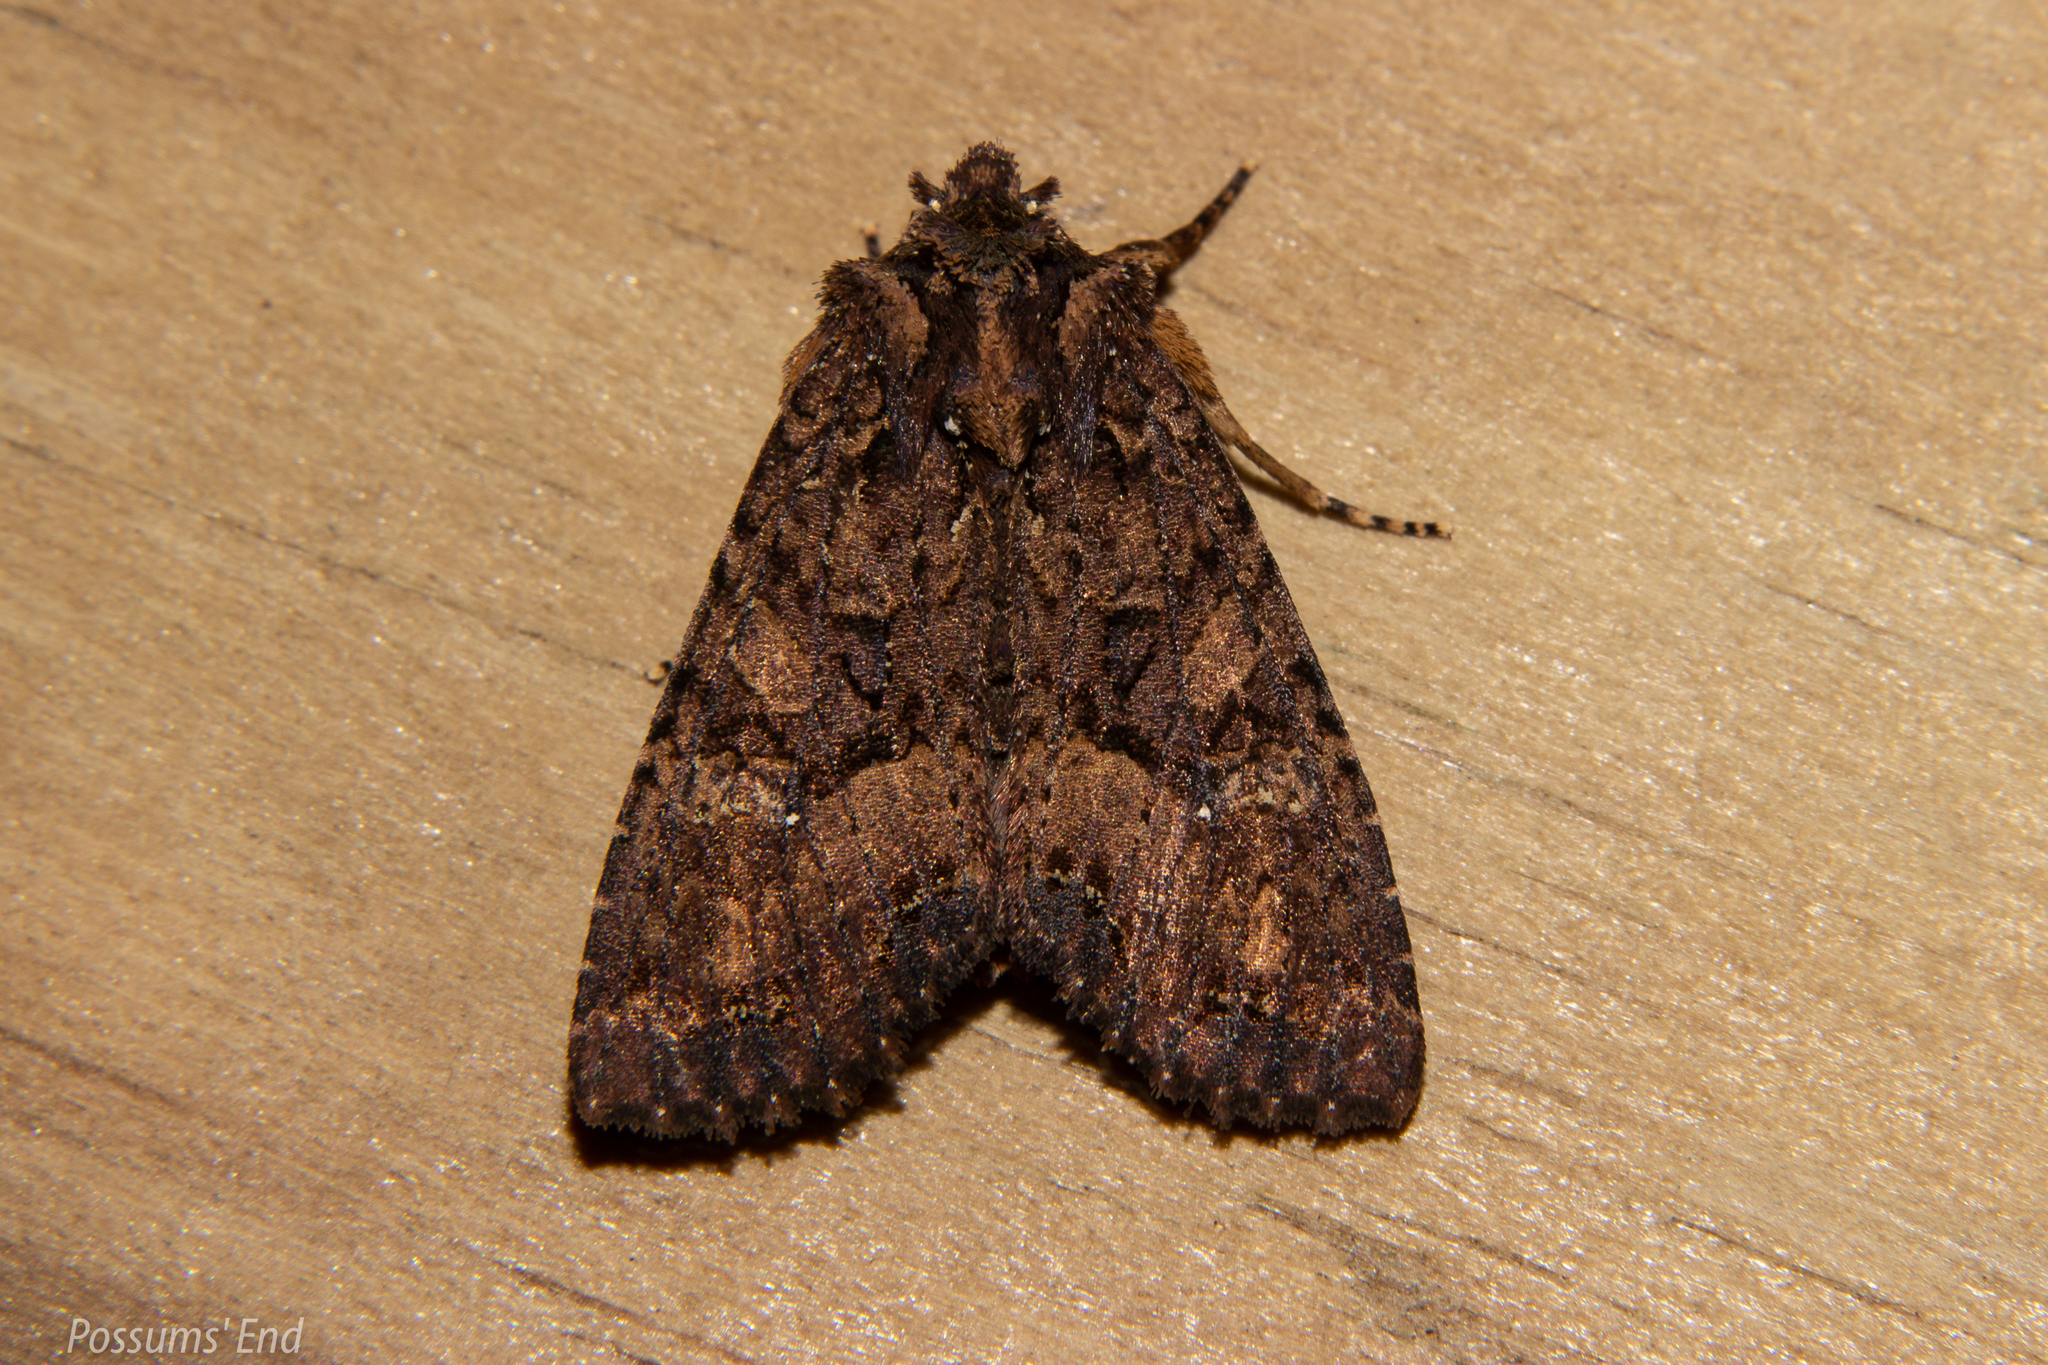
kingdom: Animalia
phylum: Arthropoda
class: Insecta
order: Lepidoptera
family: Noctuidae
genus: Meterana
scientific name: Meterana ochthistis
